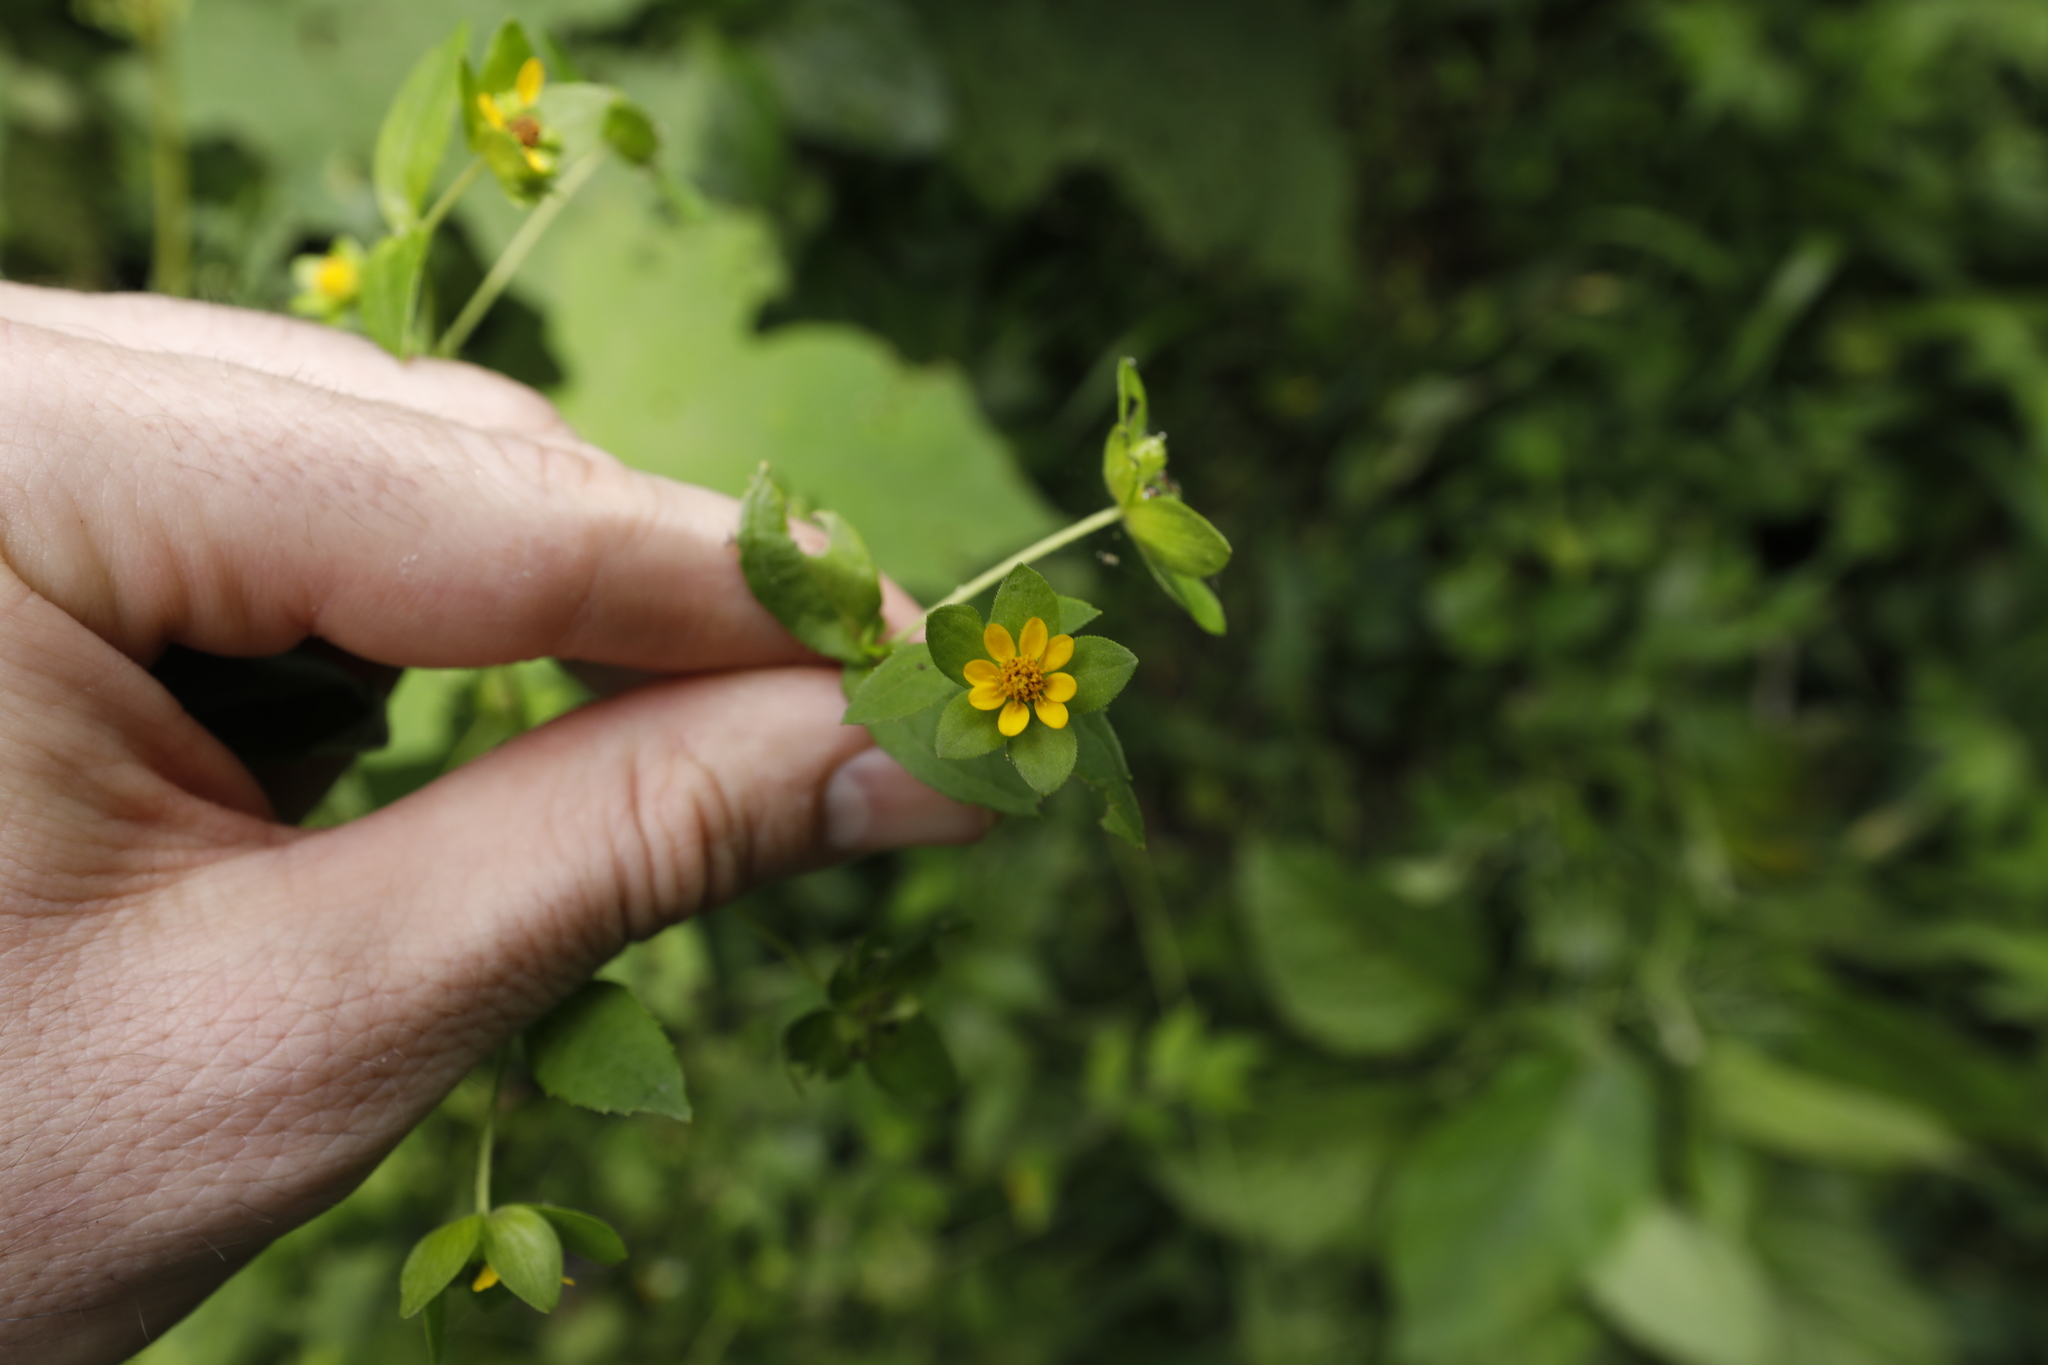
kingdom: Plantae
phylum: Tracheophyta
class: Magnoliopsida
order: Asterales
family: Asteraceae
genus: Melampodium
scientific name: Melampodium perfoliatum
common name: Perfoliate blackfoot
